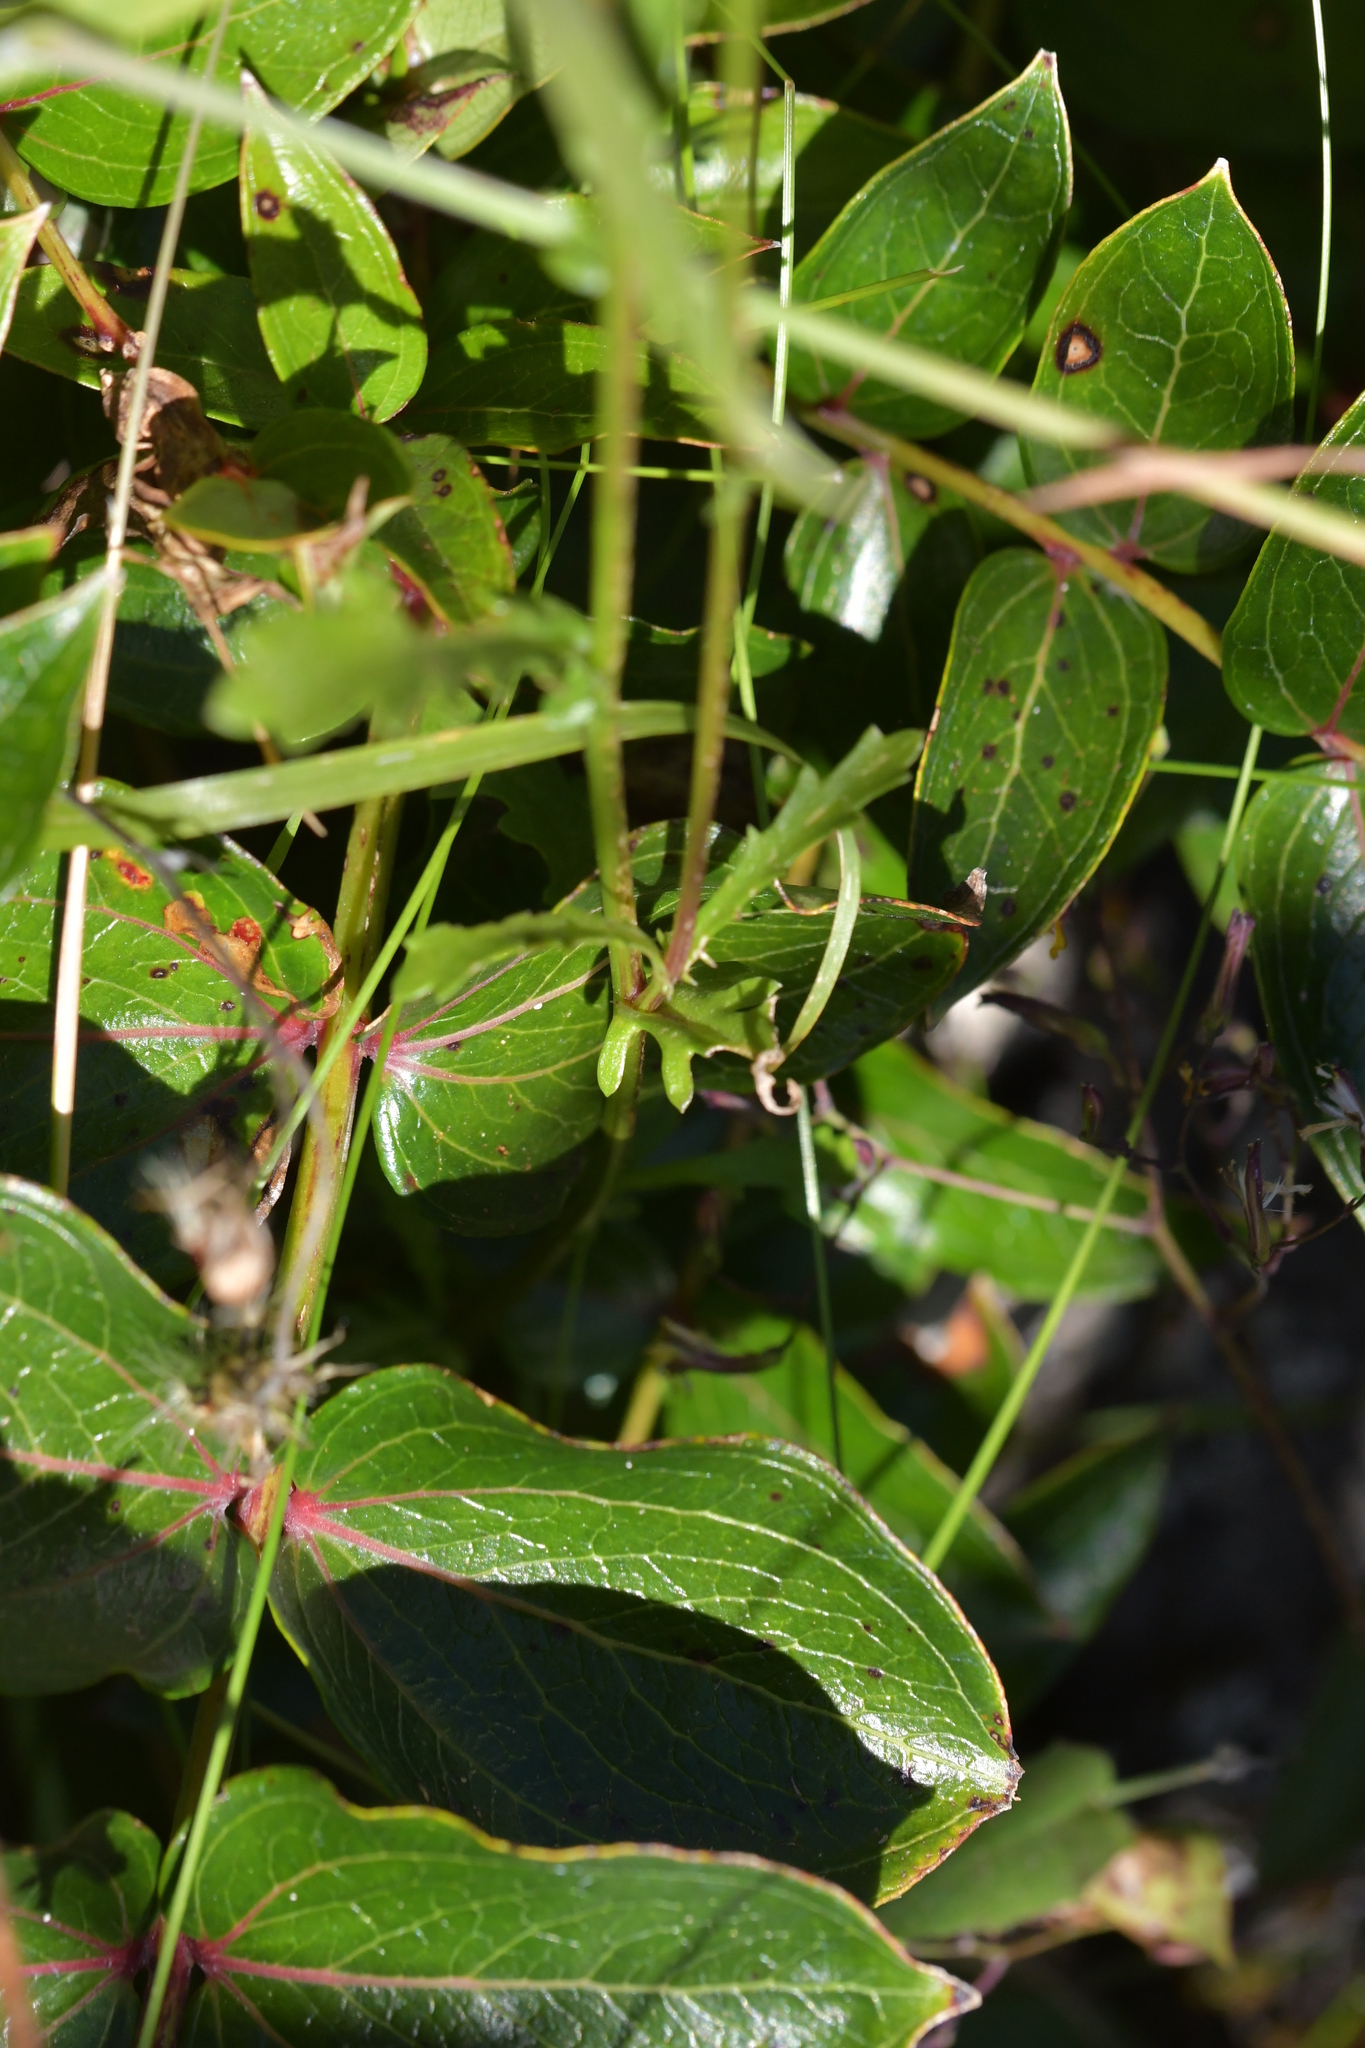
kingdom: Plantae
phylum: Tracheophyta
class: Magnoliopsida
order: Asterales
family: Asteraceae
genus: Leucanthemum
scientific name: Leucanthemum vulgare
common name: Oxeye daisy
